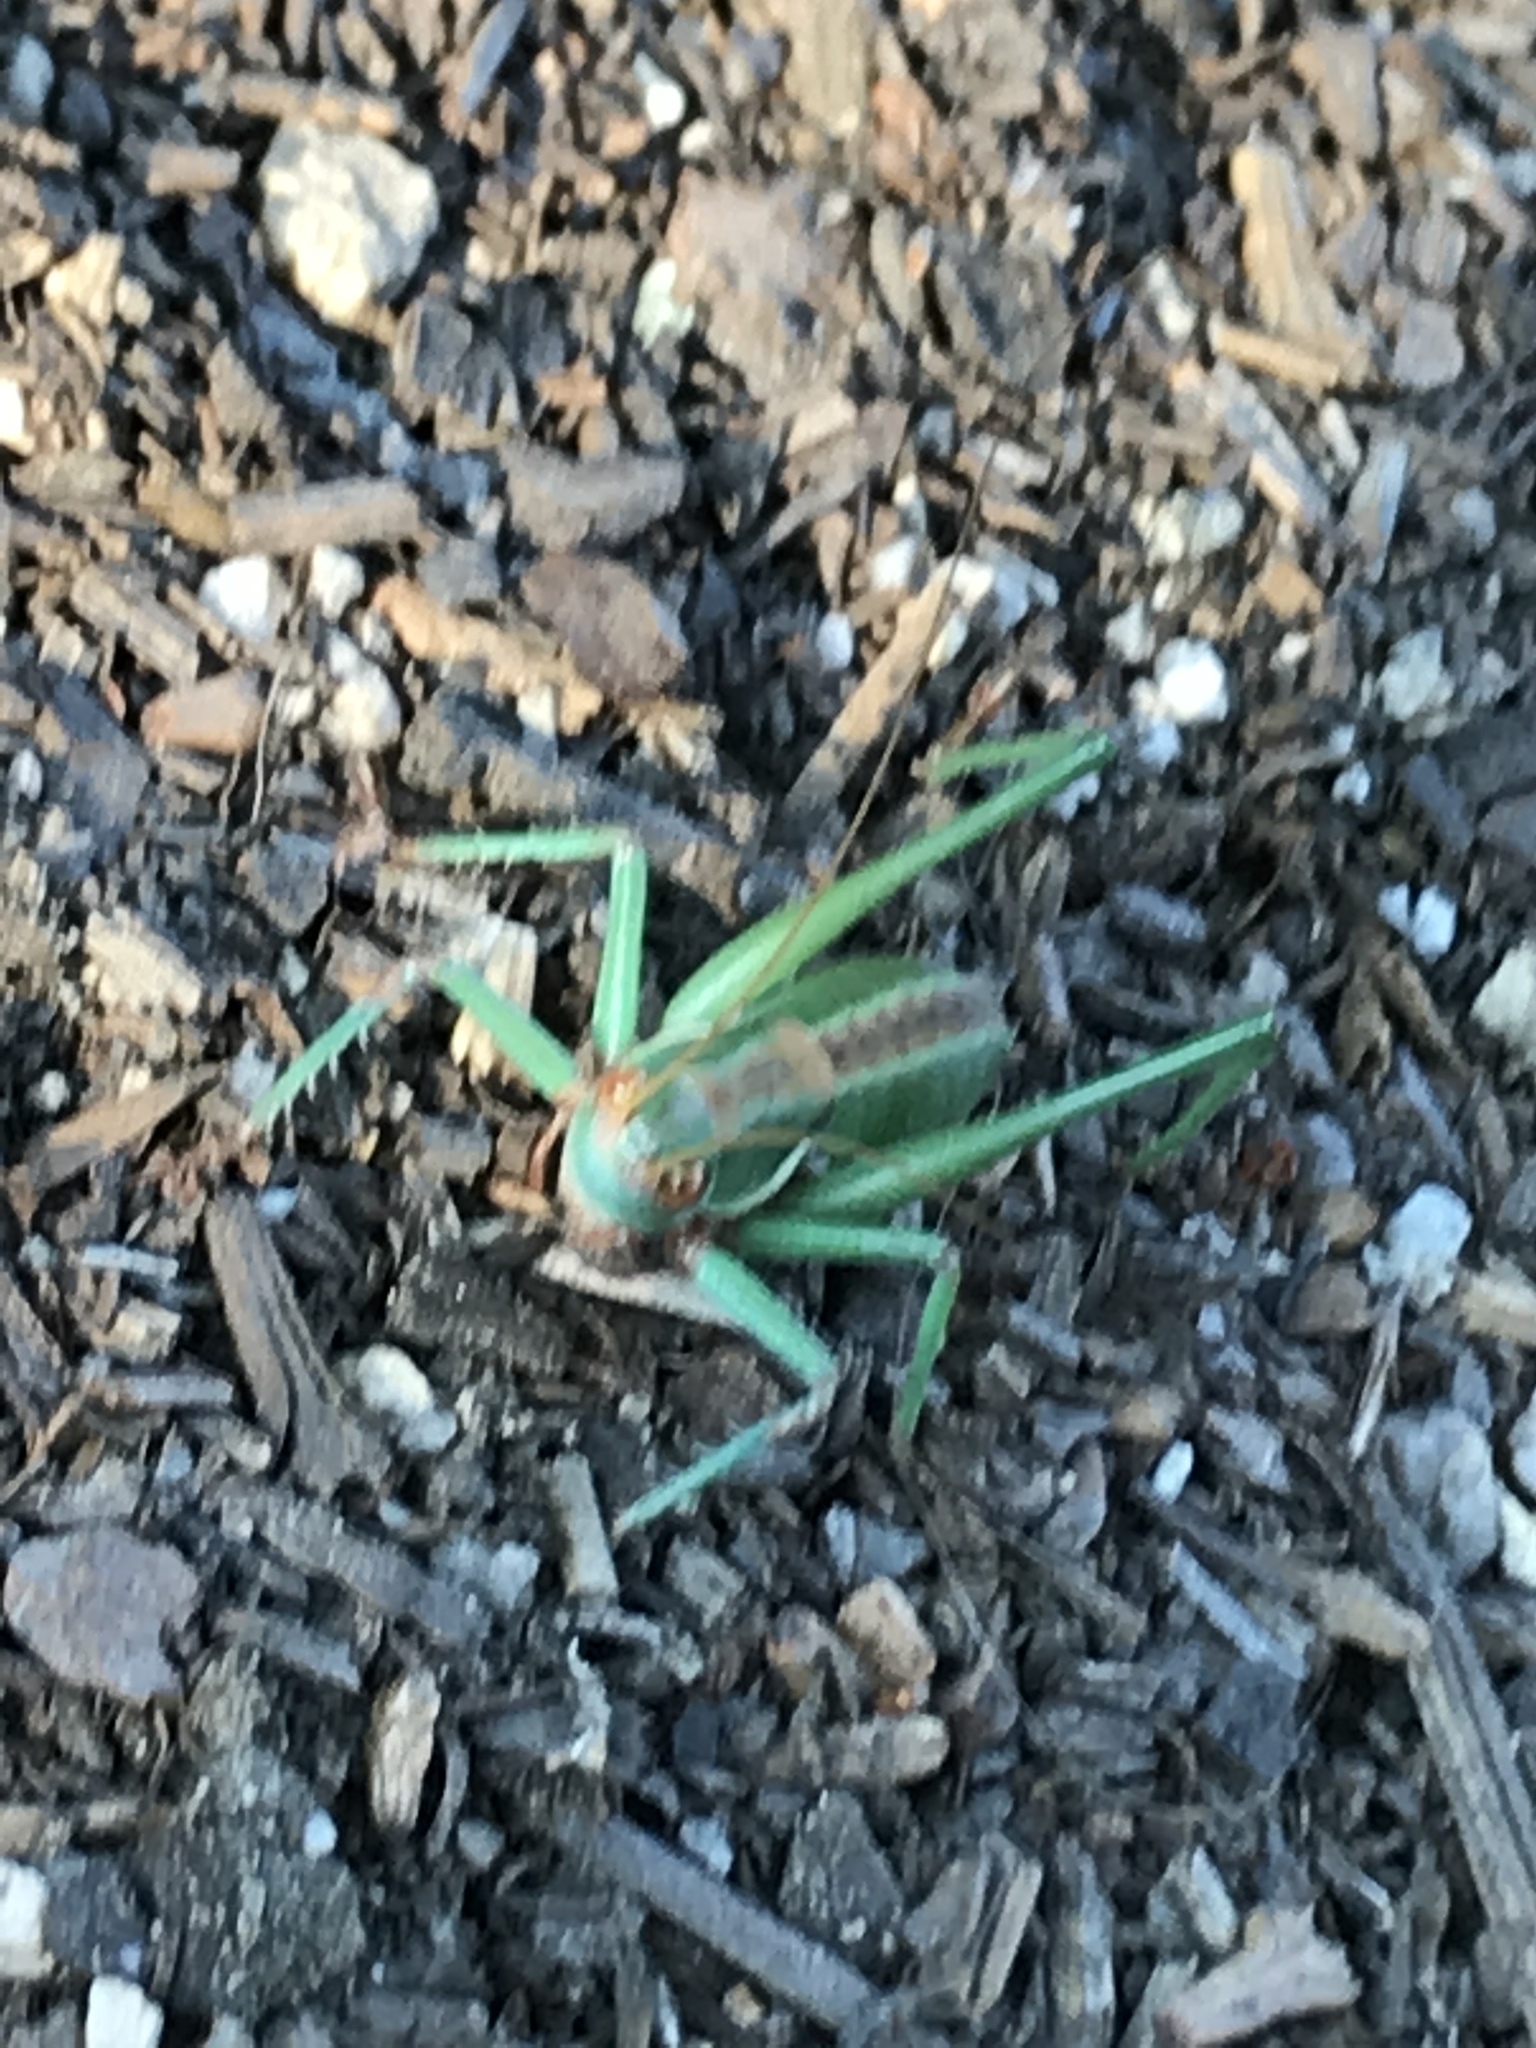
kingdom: Animalia
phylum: Arthropoda
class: Insecta
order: Orthoptera
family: Tettigoniidae
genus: Idiostatus
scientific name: Idiostatus aberrans
